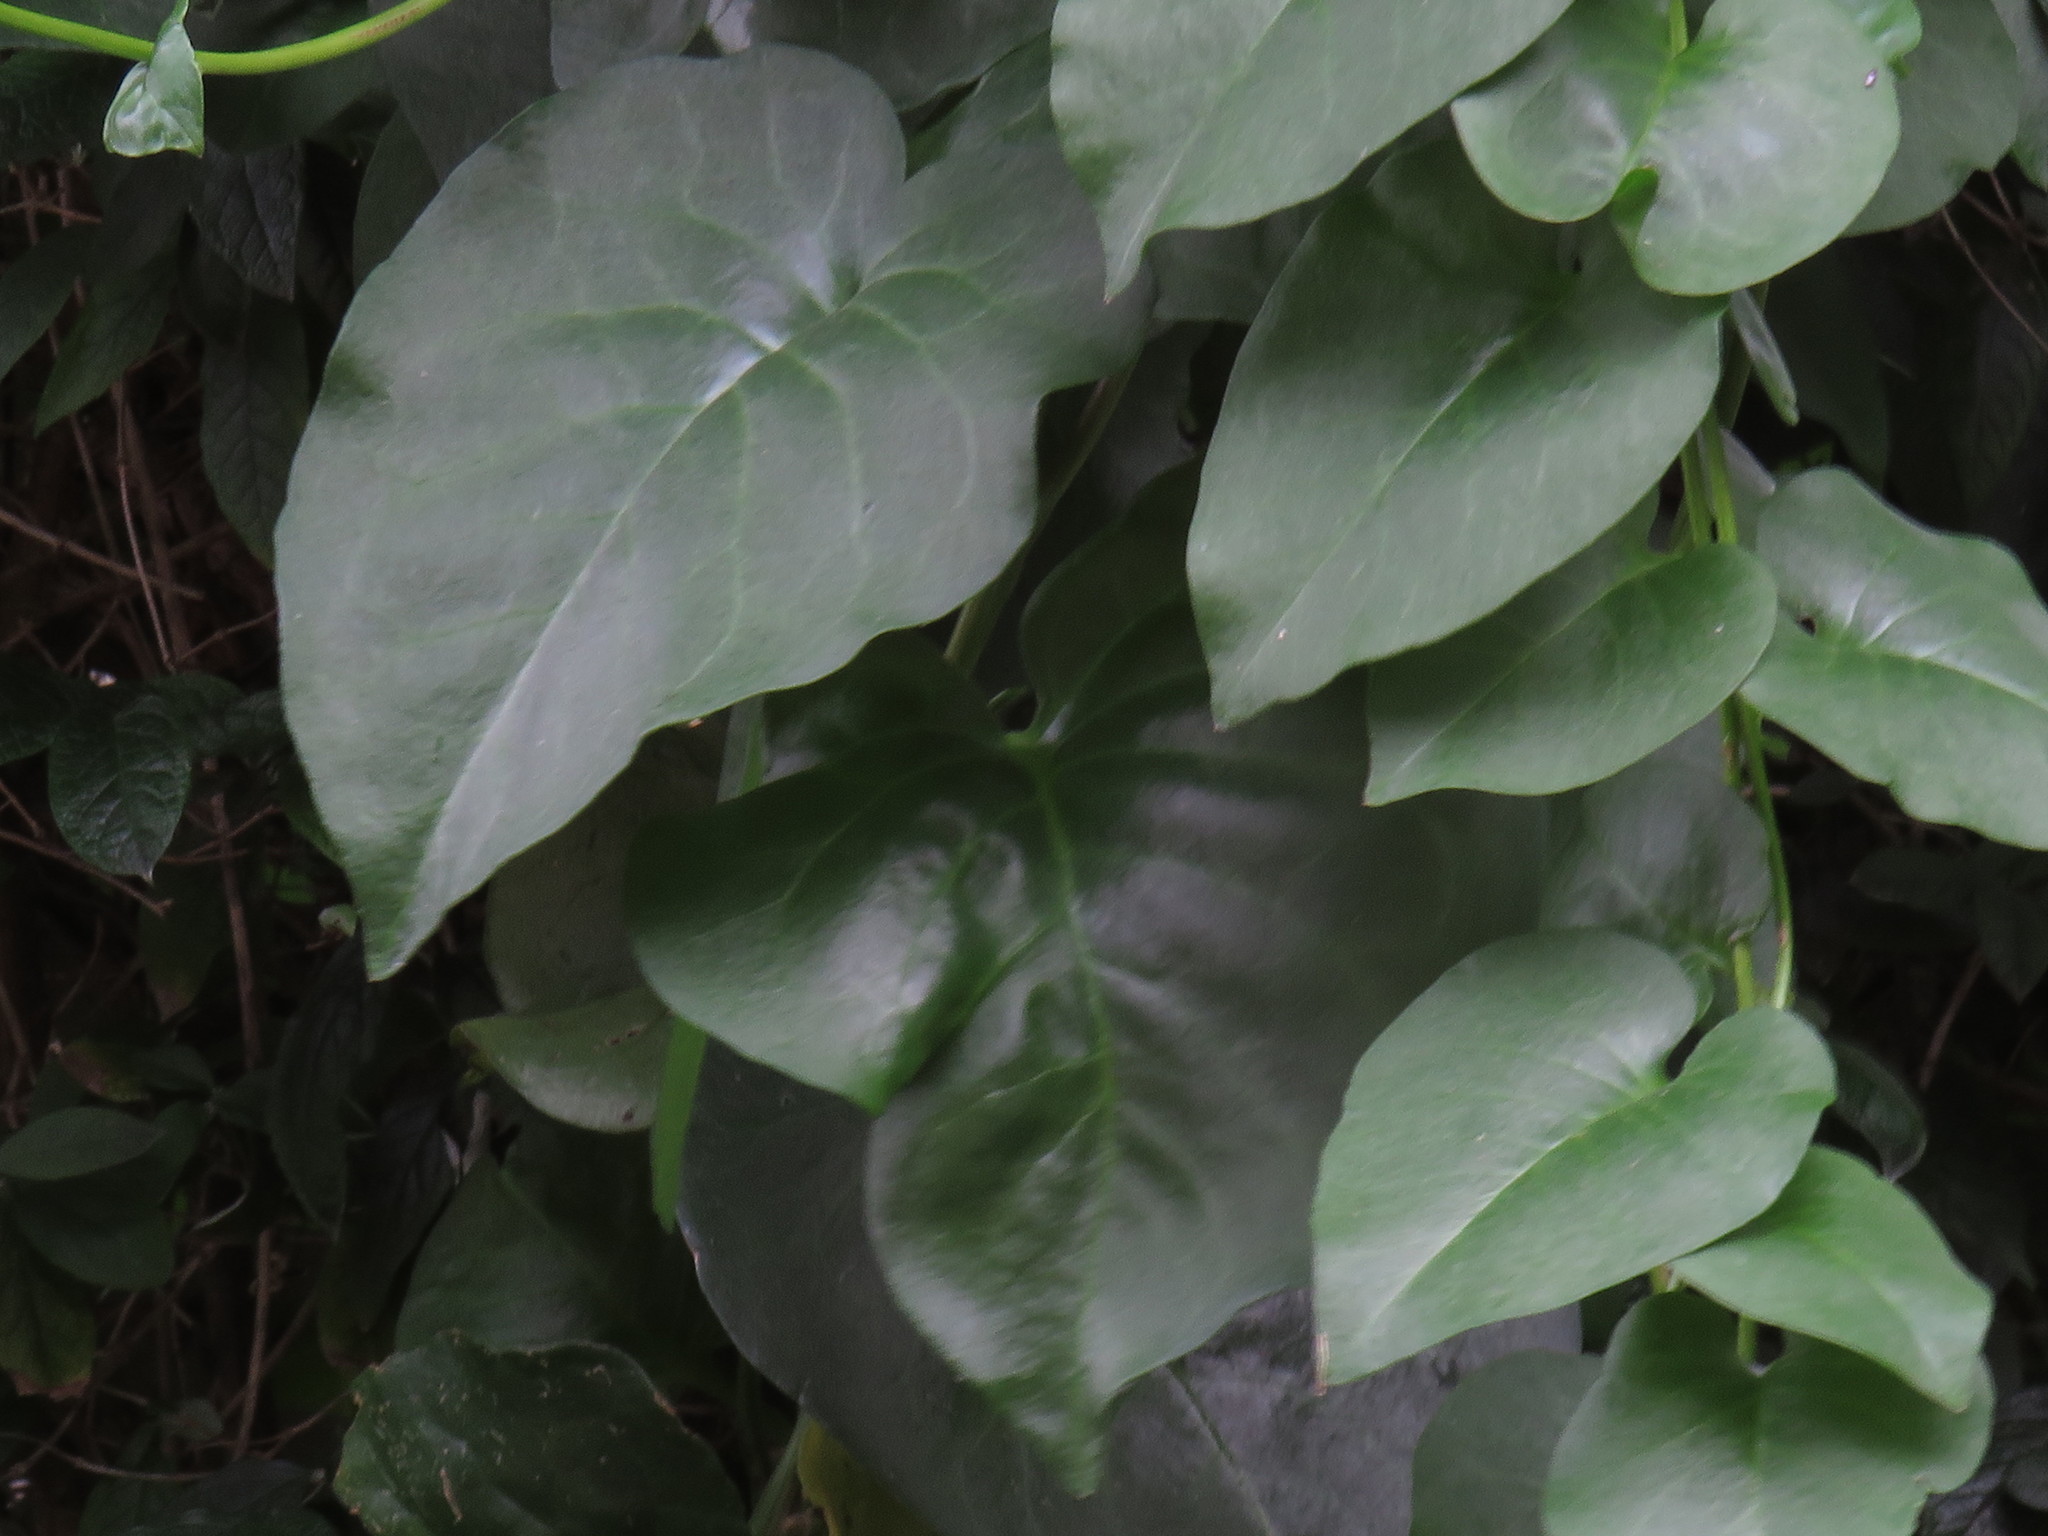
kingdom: Plantae
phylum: Tracheophyta
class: Magnoliopsida
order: Caryophyllales
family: Basellaceae
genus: Anredera
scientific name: Anredera cordifolia
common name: Heartleaf madeiravine
